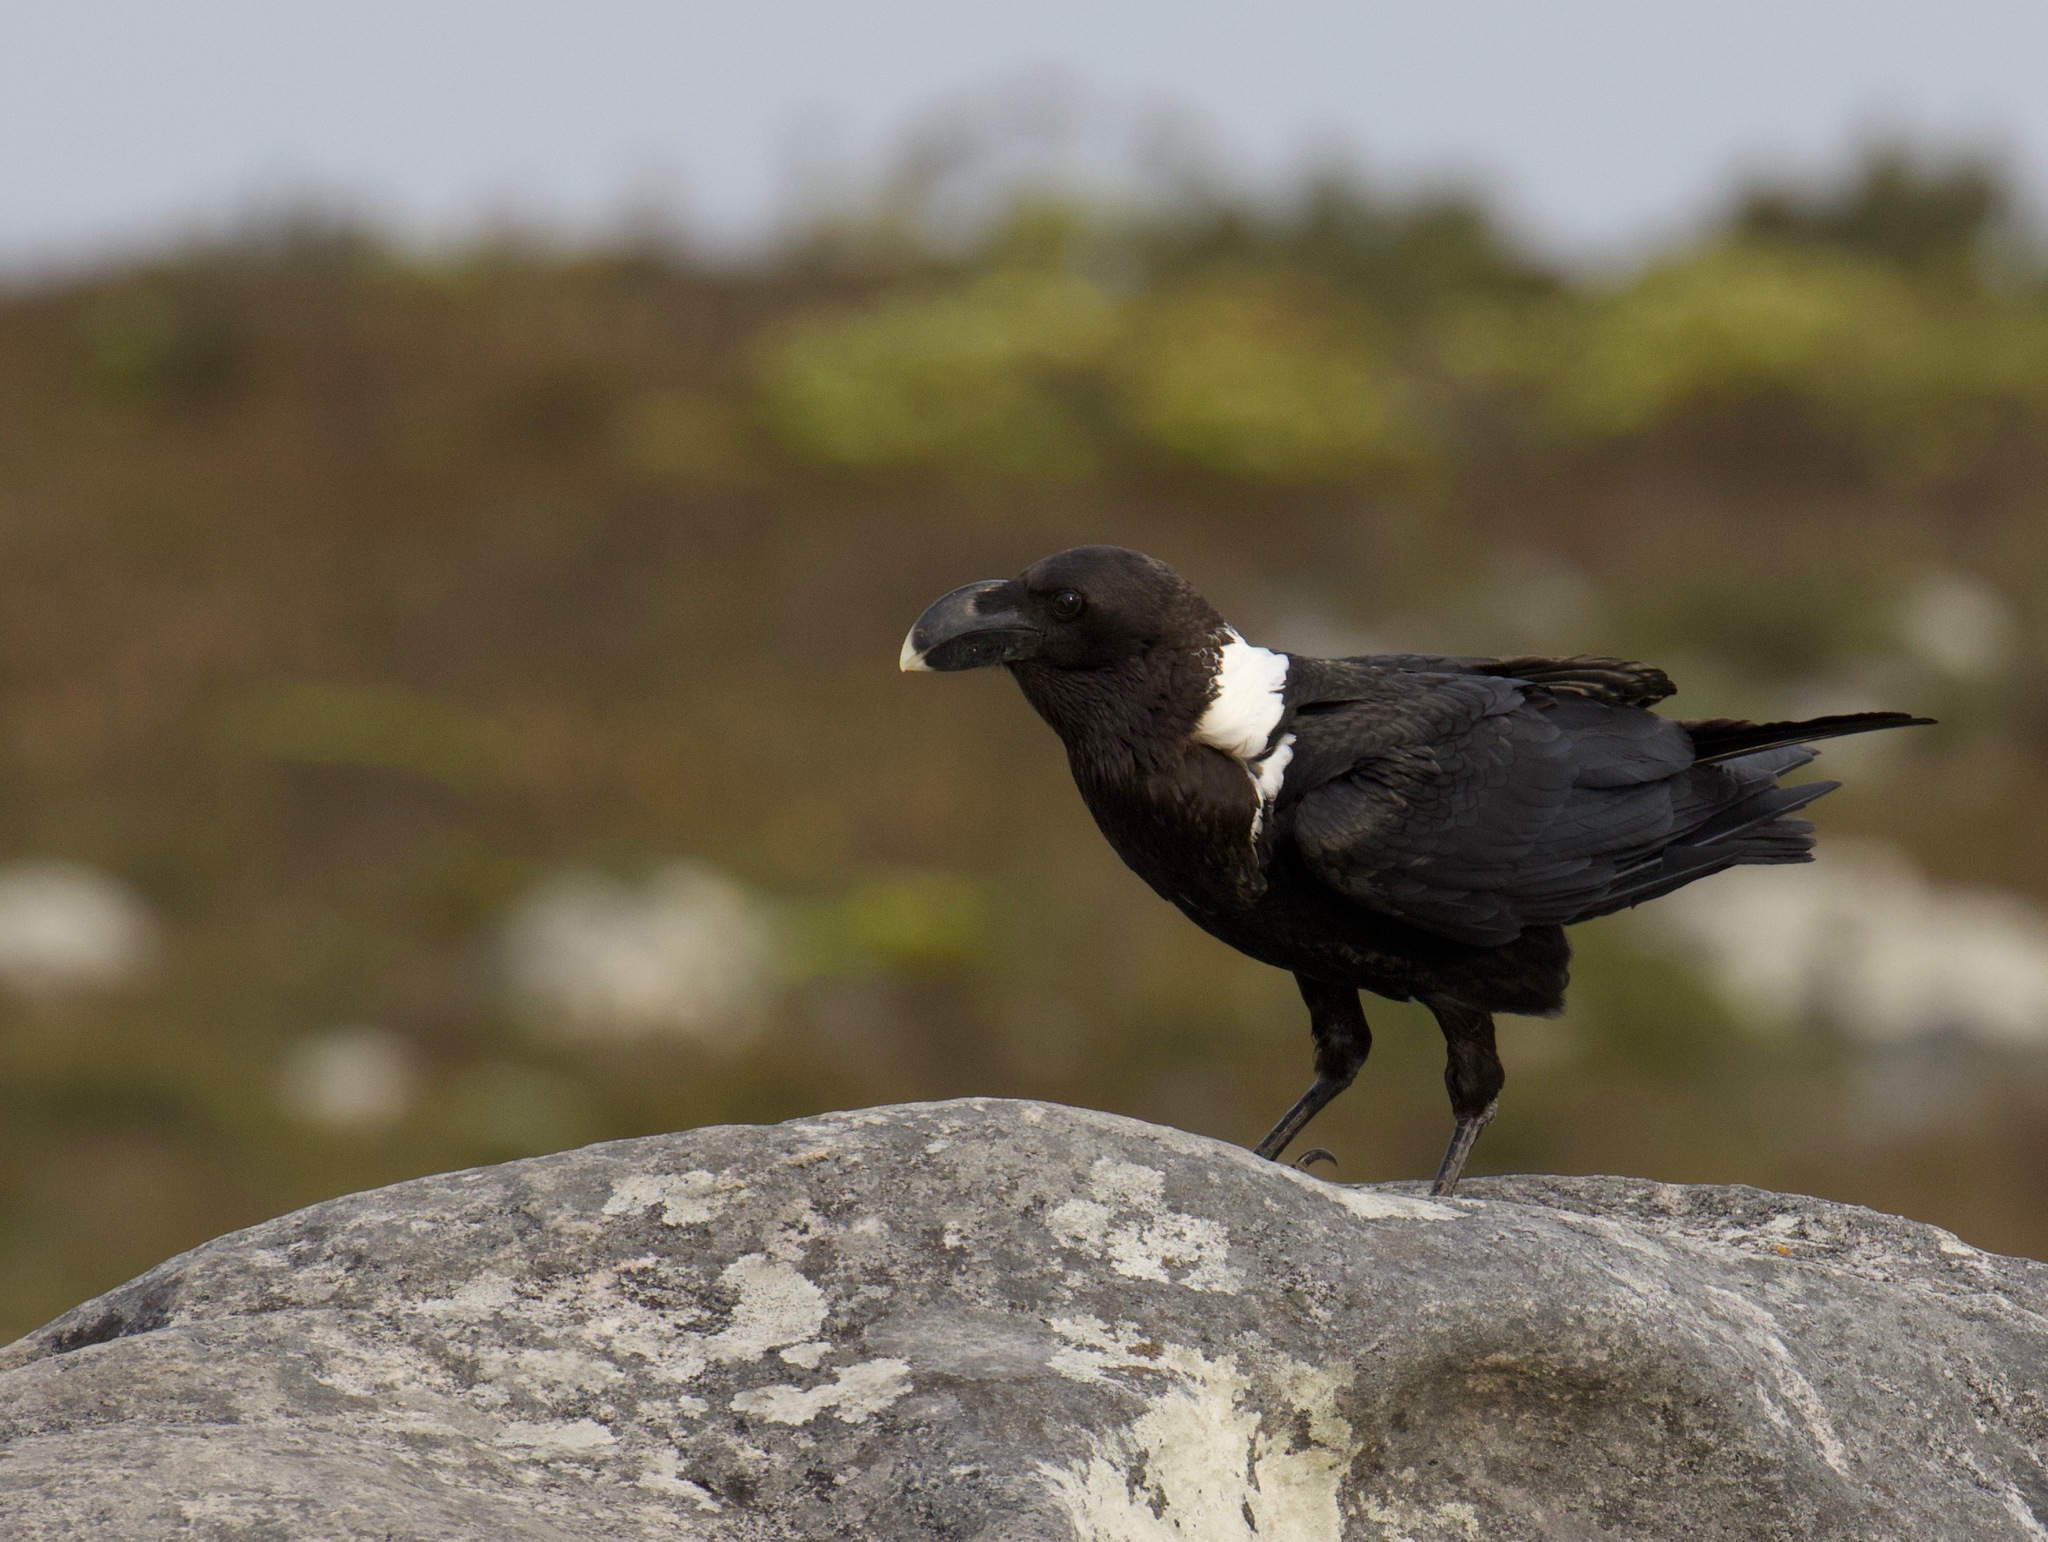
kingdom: Animalia
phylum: Chordata
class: Aves
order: Passeriformes
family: Corvidae
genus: Corvus
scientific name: Corvus albicollis
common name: White-necked raven
